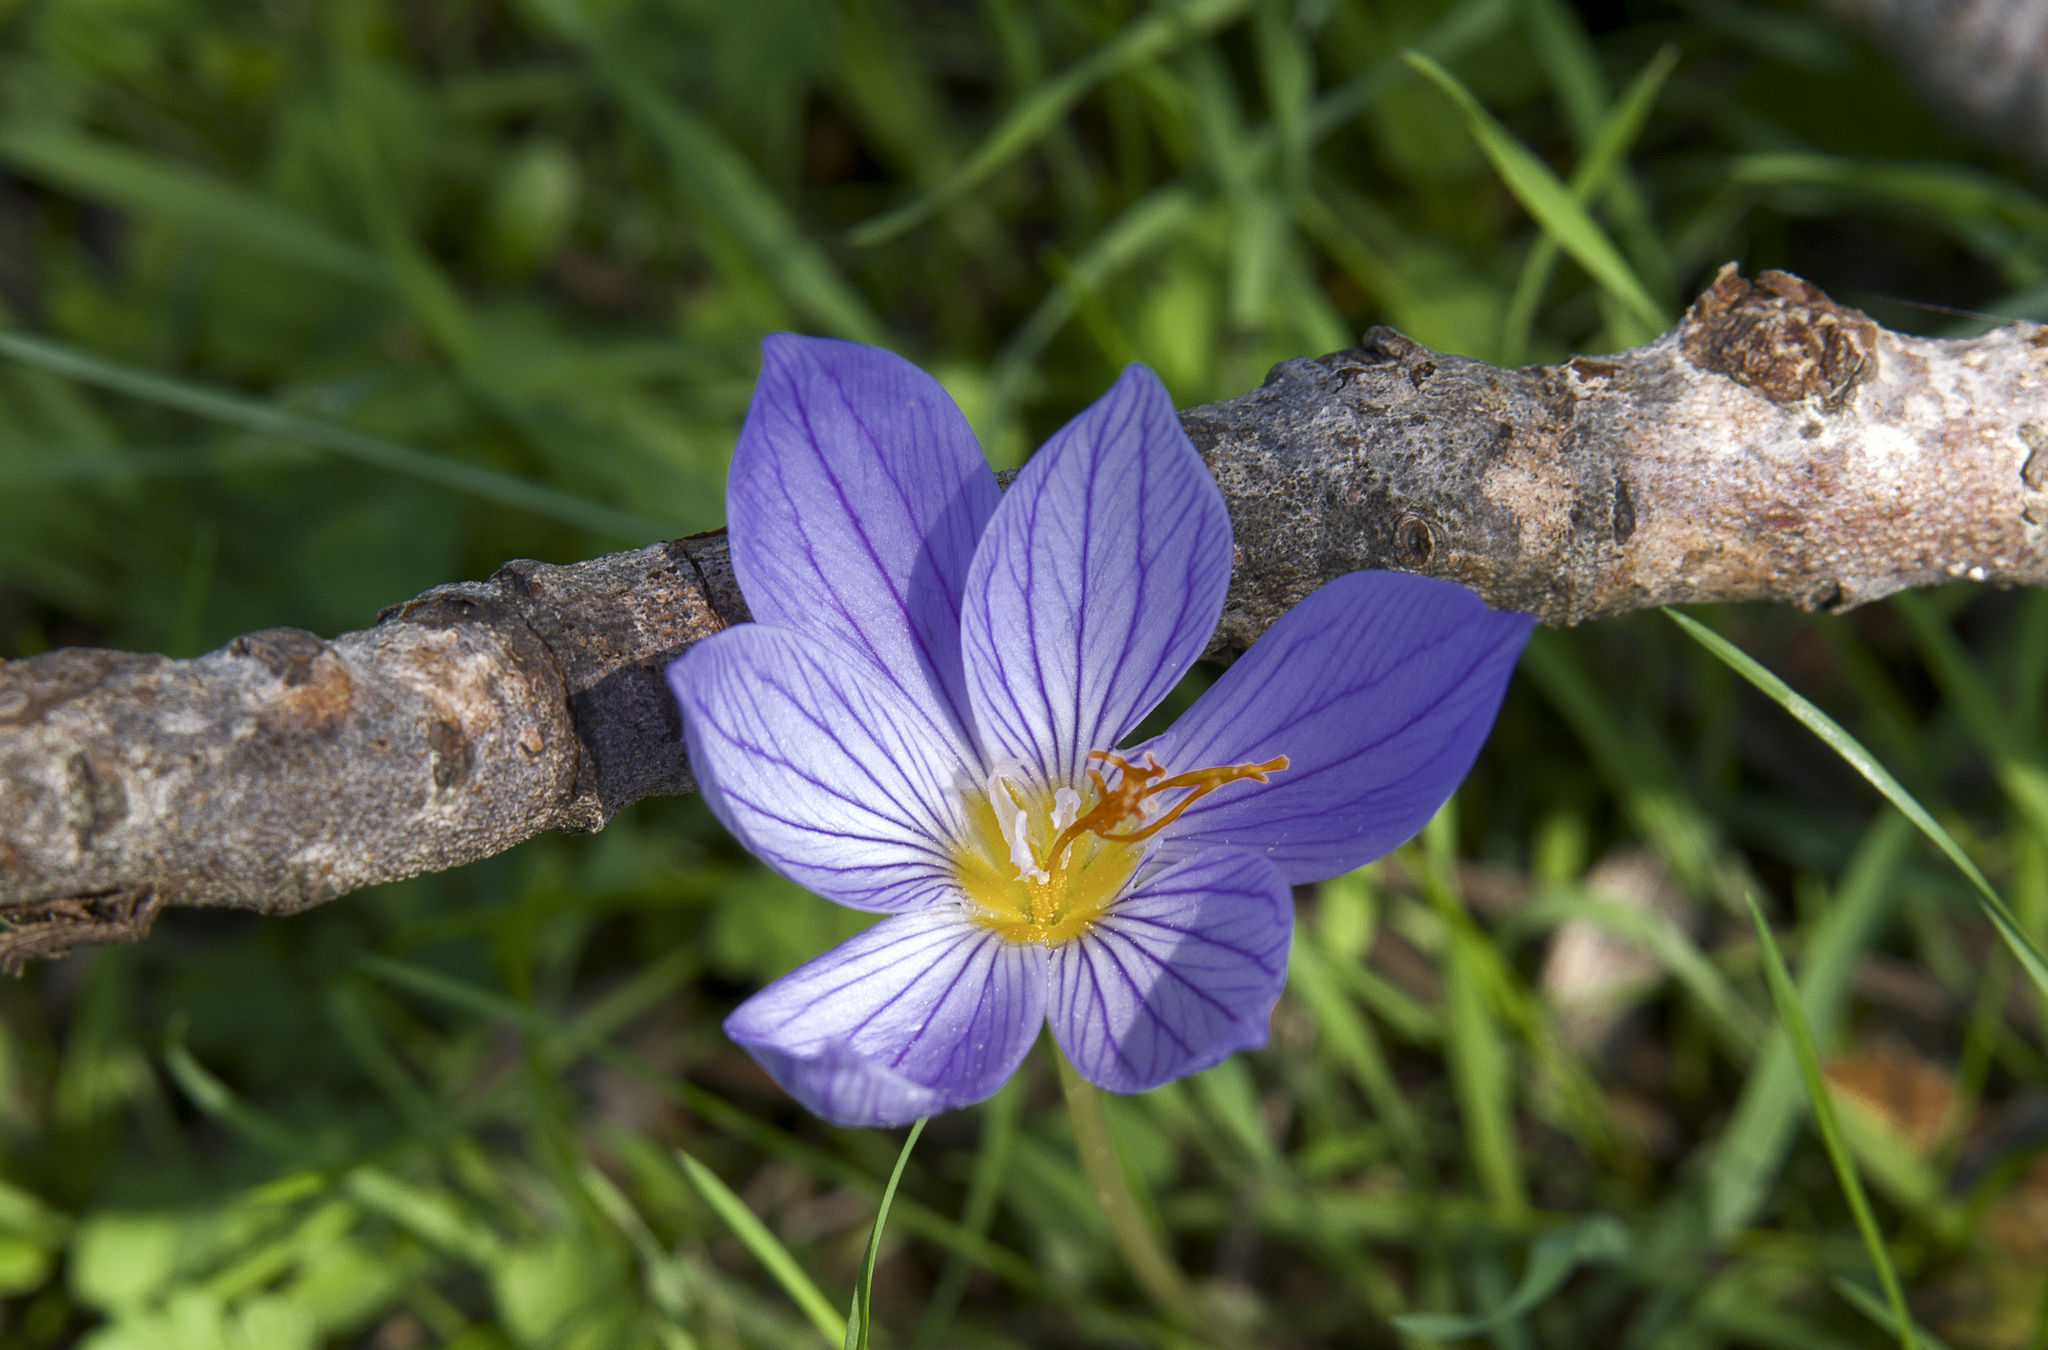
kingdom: Plantae
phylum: Tracheophyta
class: Liliopsida
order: Asparagales
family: Iridaceae
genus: Crocus
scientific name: Crocus ibrahimii
